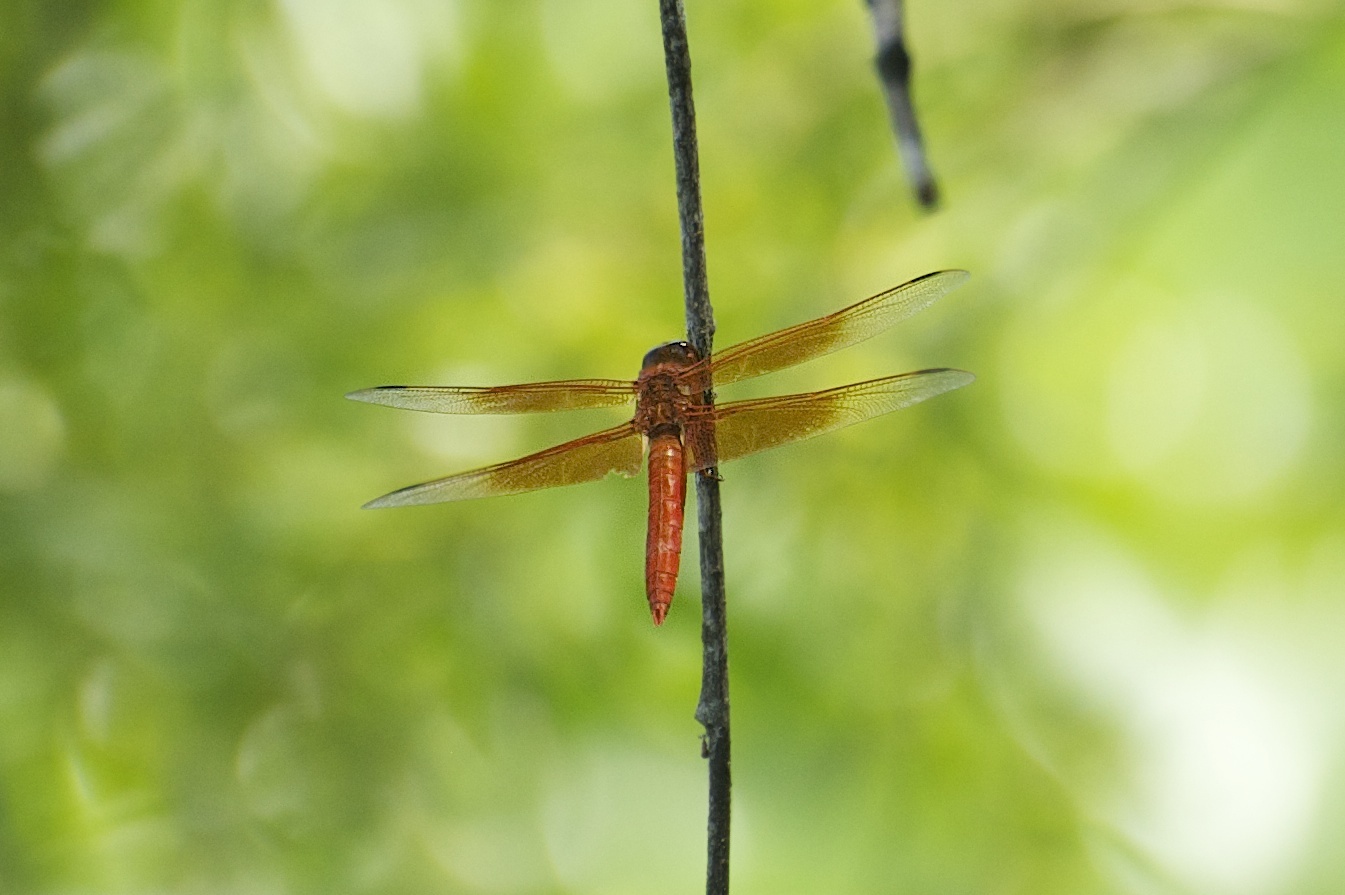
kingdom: Animalia
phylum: Arthropoda
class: Insecta
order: Odonata
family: Libellulidae
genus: Libellula
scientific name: Libellula saturata
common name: Flame skimmer
